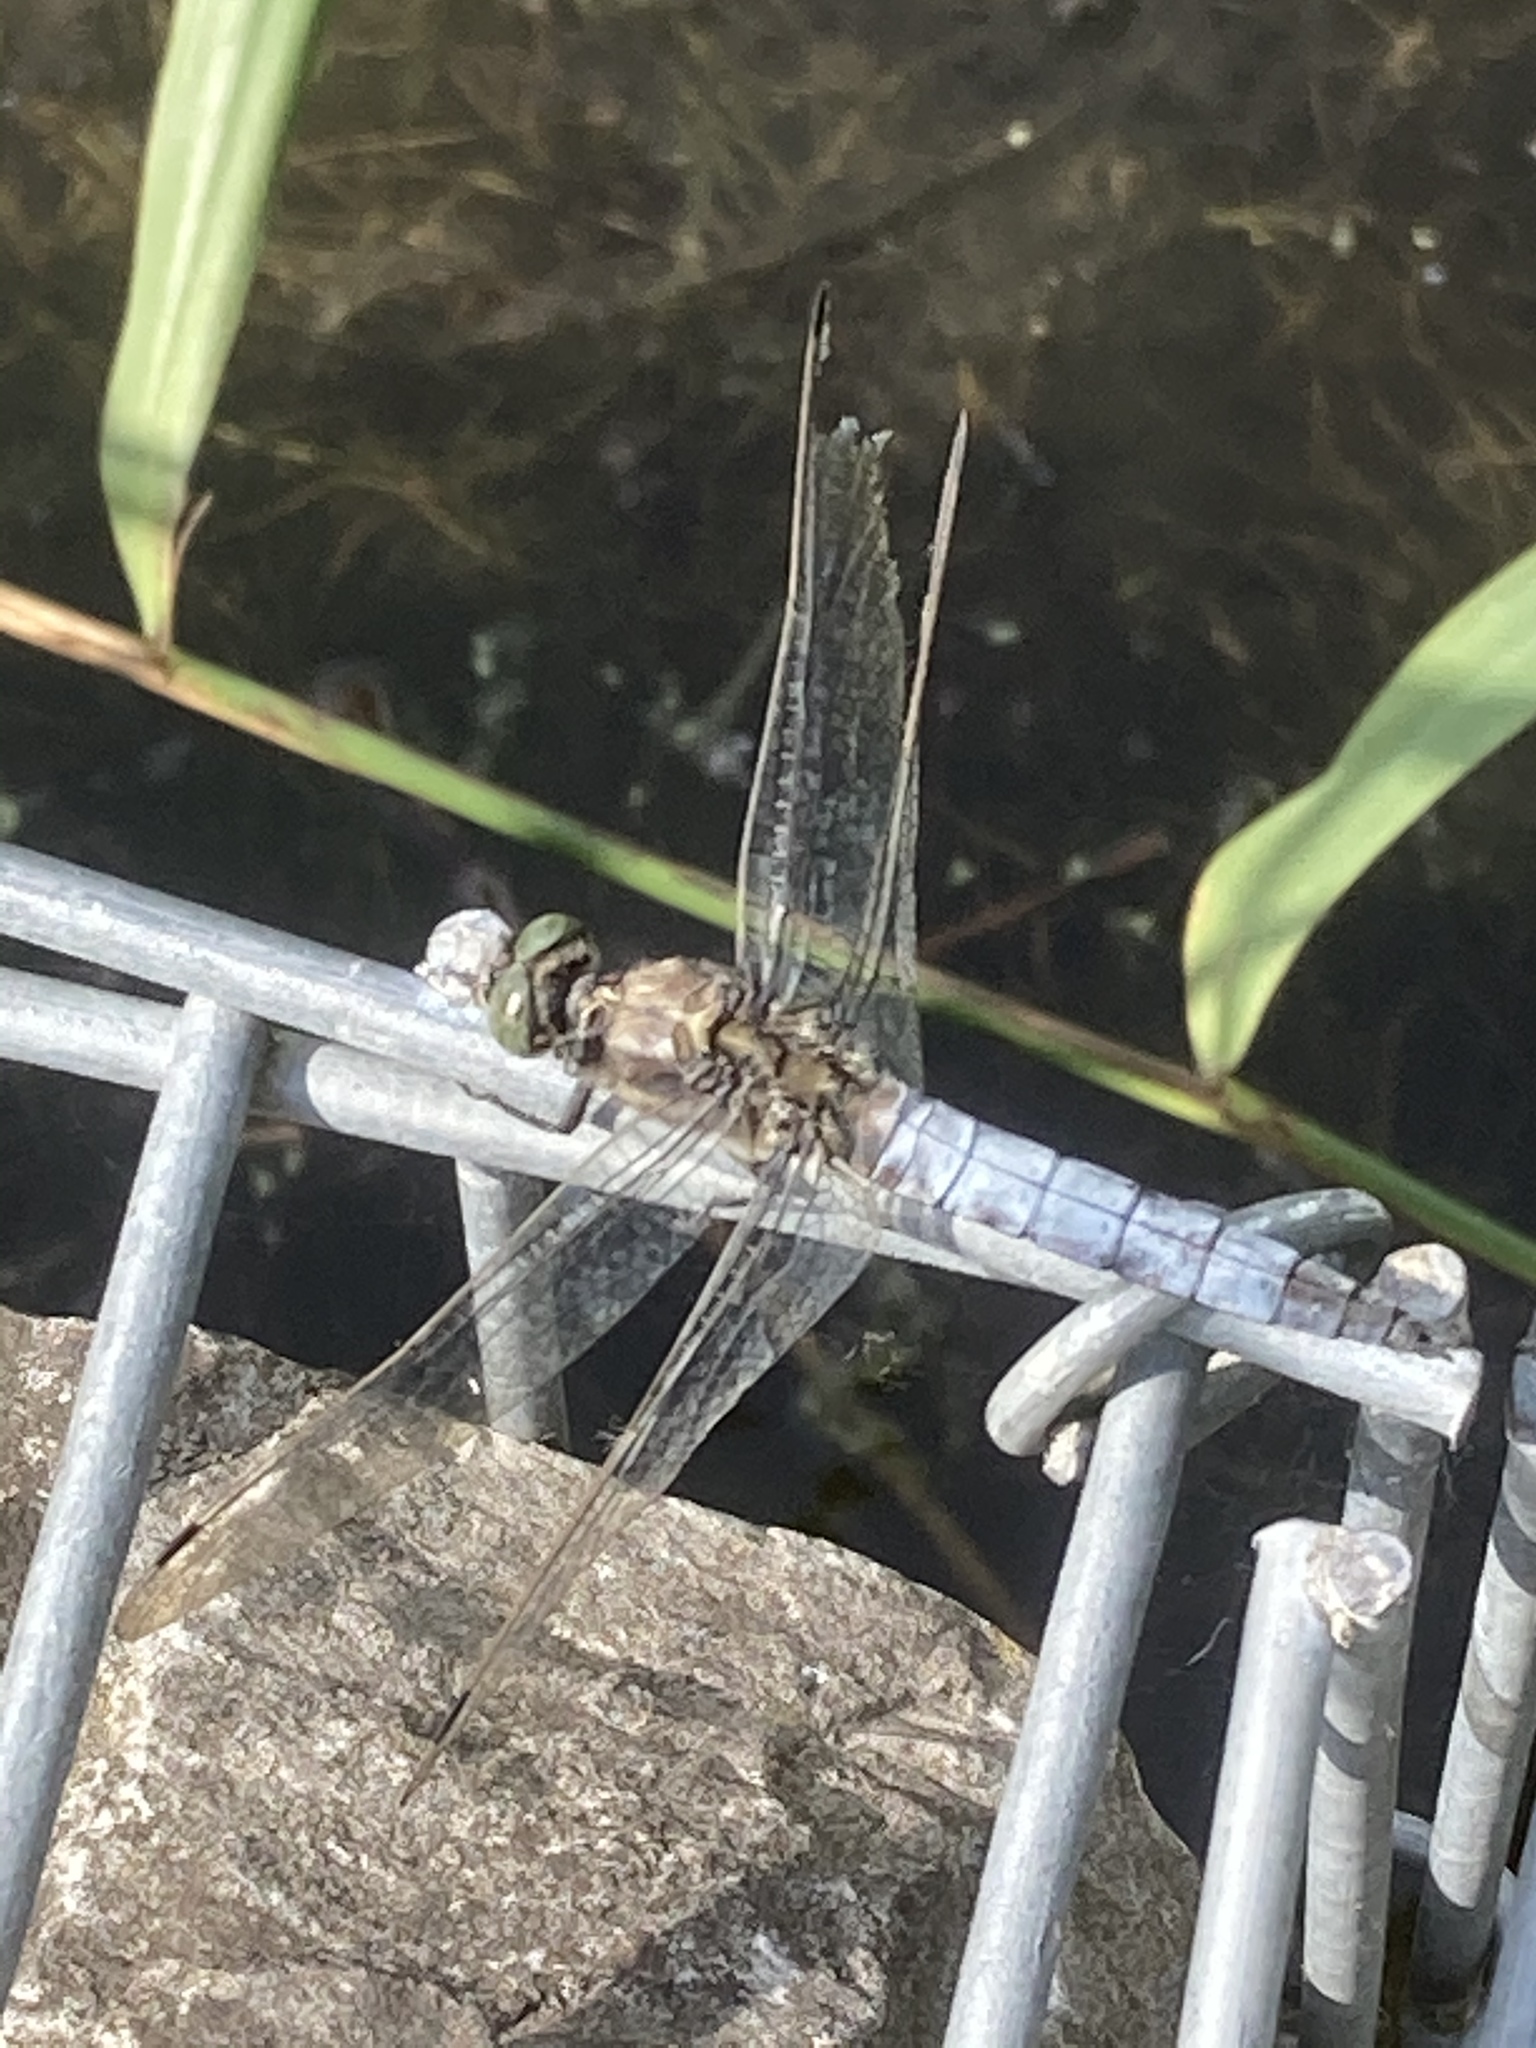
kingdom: Animalia
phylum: Arthropoda
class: Insecta
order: Odonata
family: Libellulidae
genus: Orthetrum
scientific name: Orthetrum cancellatum
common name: Black-tailed skimmer
